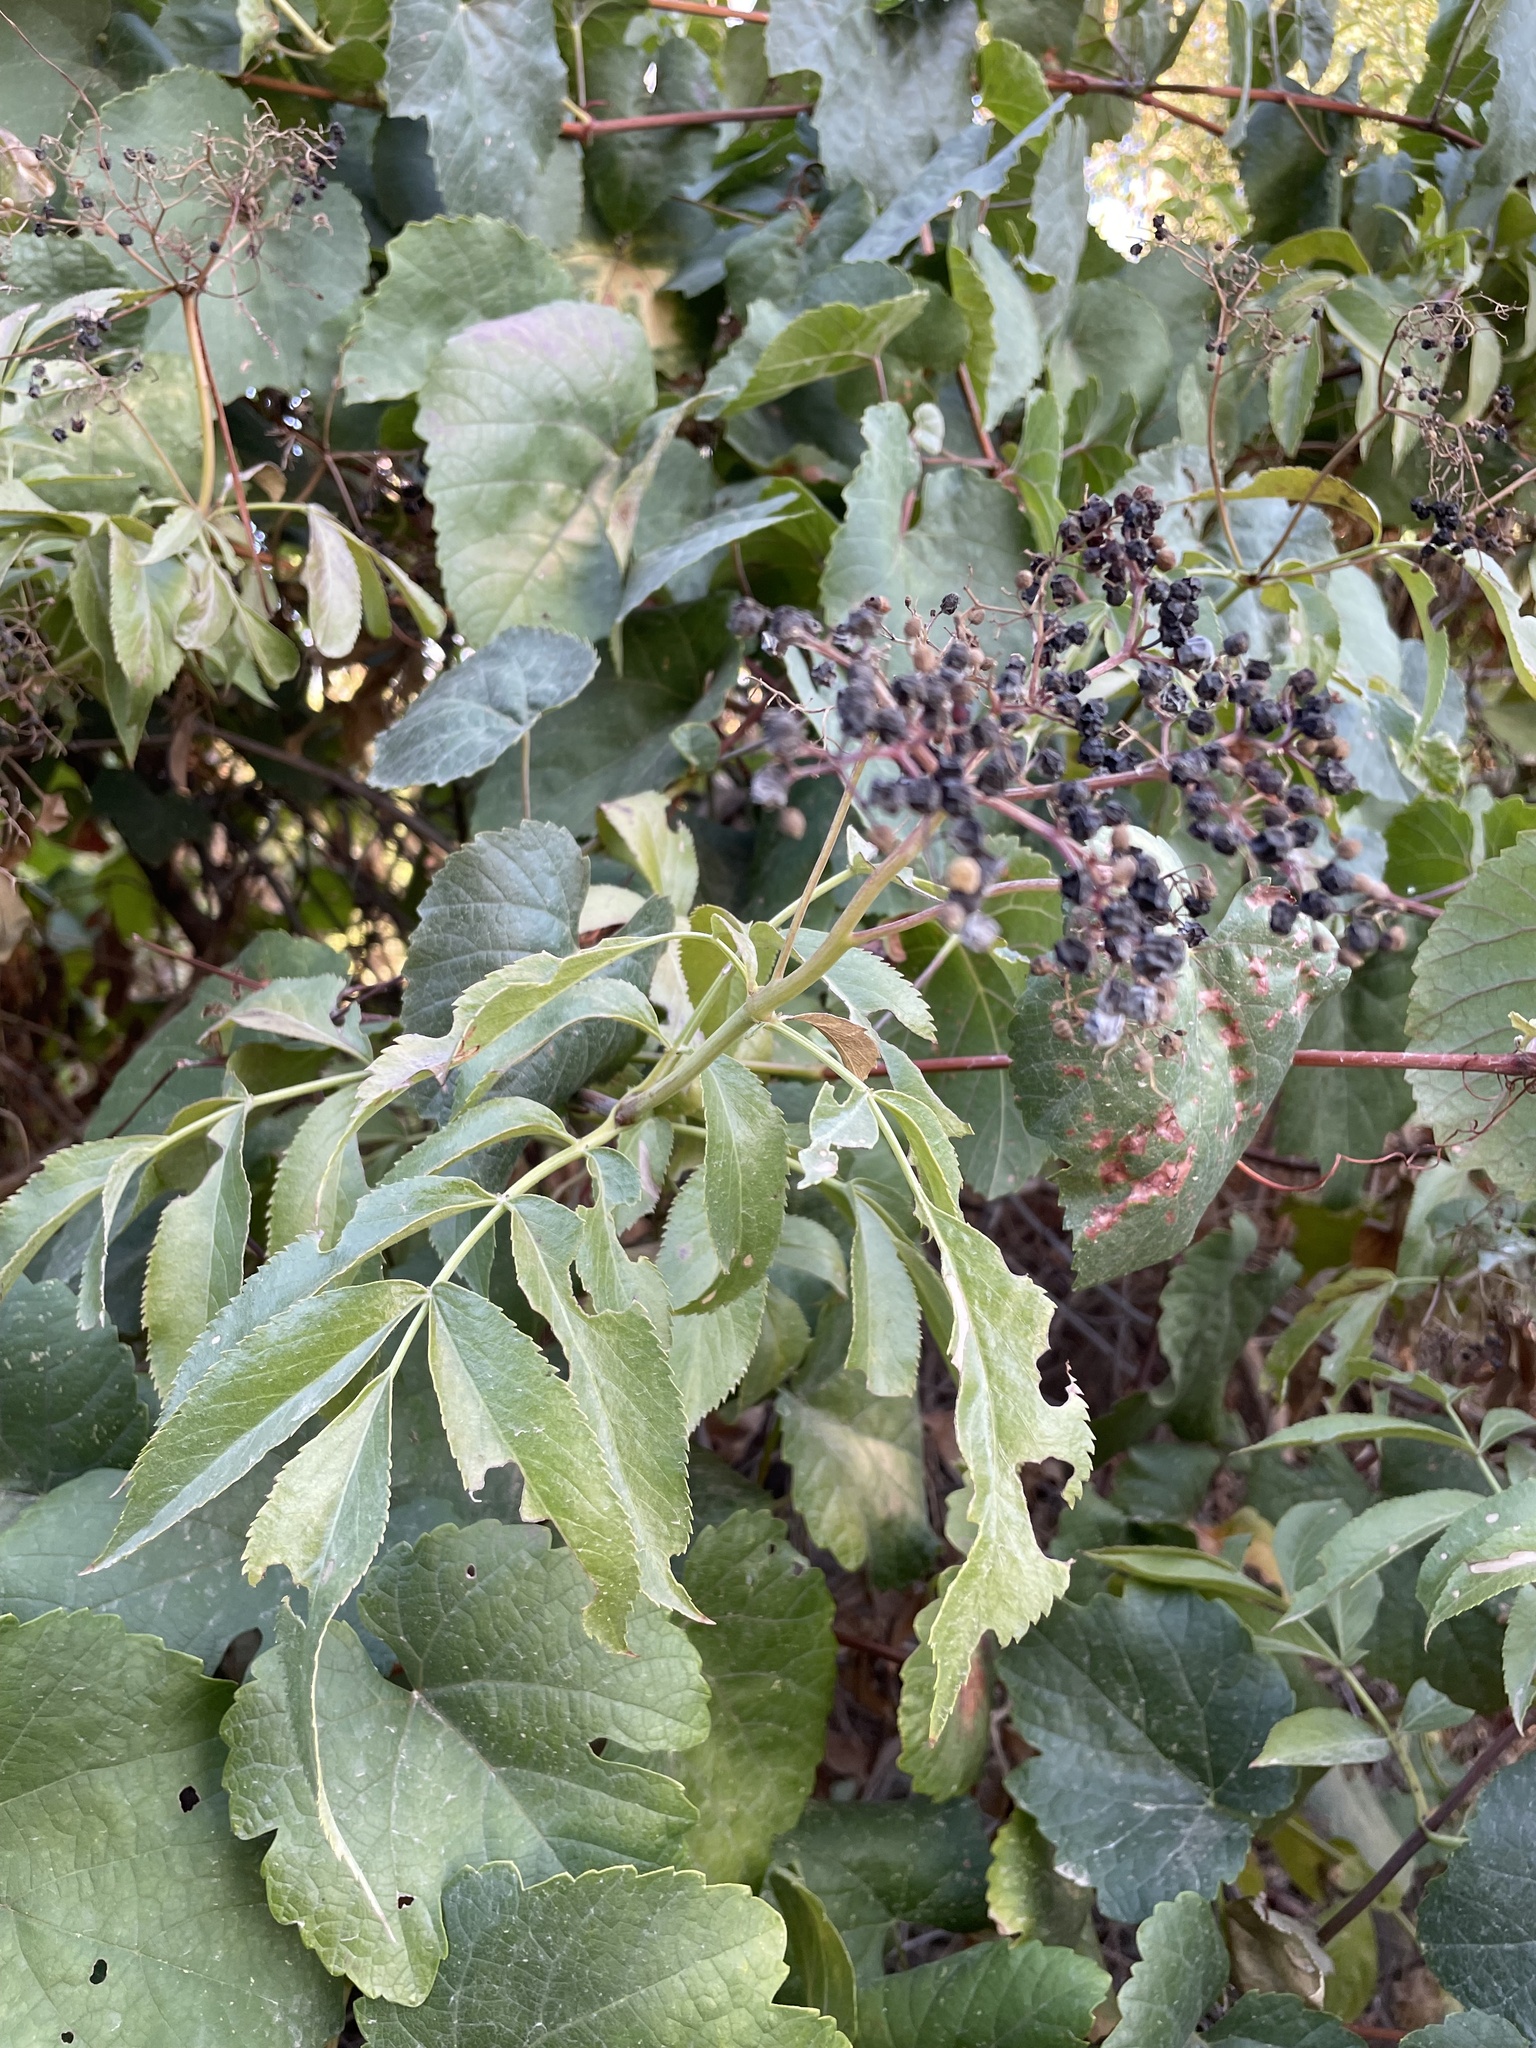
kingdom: Plantae
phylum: Tracheophyta
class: Magnoliopsida
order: Dipsacales
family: Viburnaceae
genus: Sambucus
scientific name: Sambucus cerulea
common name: Blue elder
